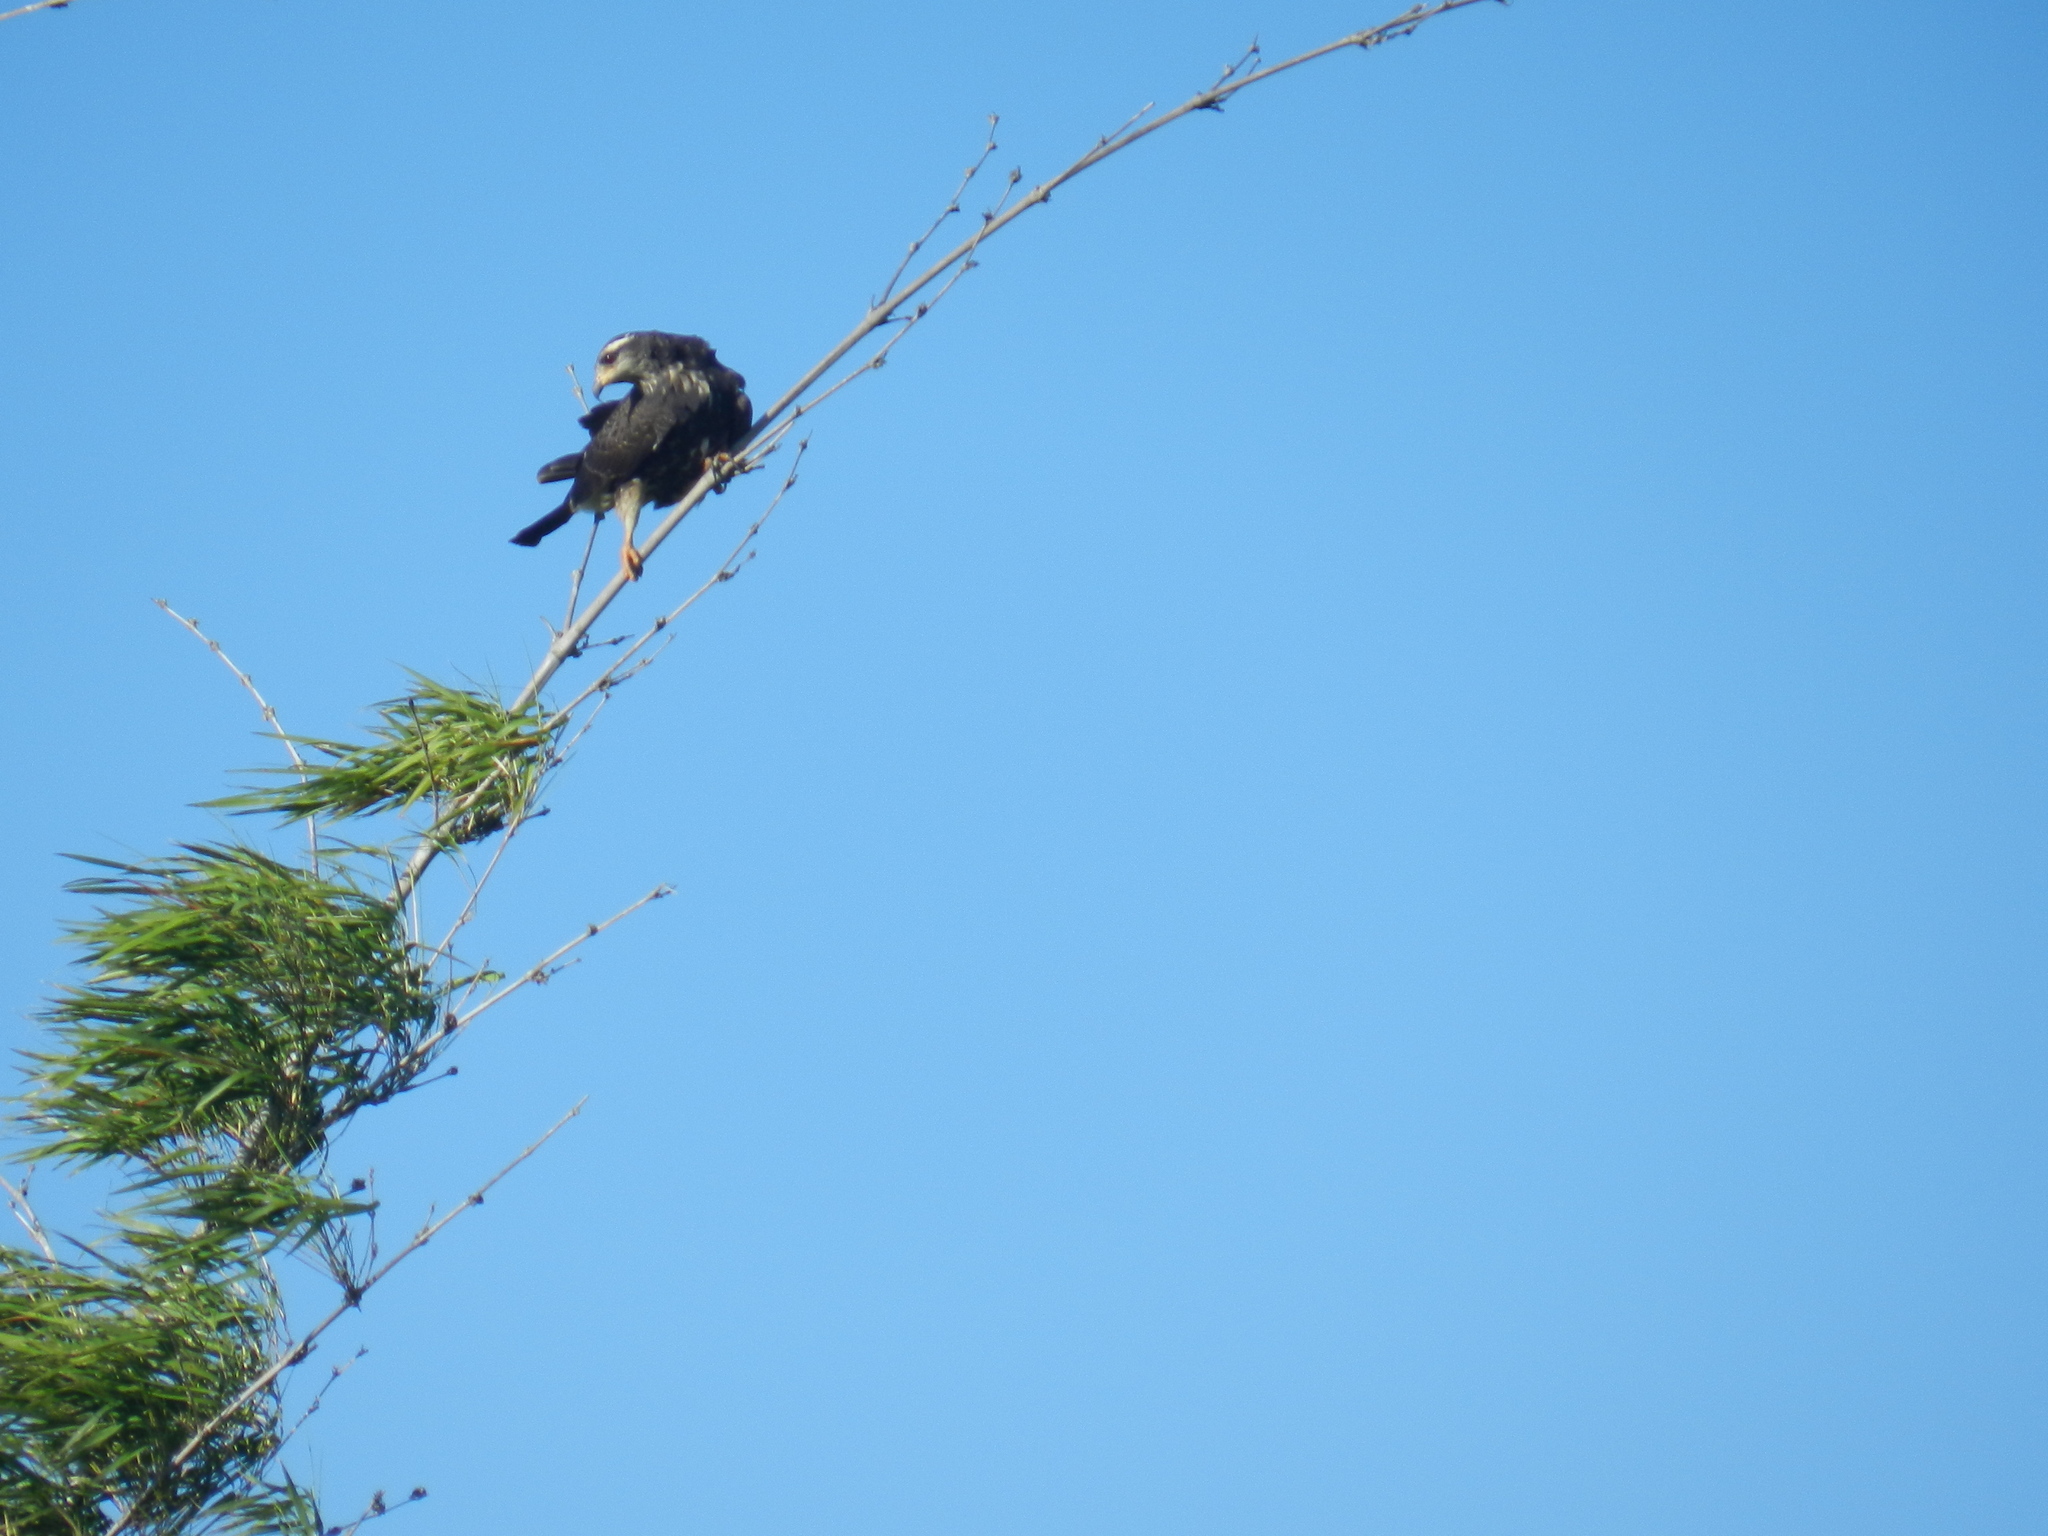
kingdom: Animalia
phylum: Chordata
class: Aves
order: Accipitriformes
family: Accipitridae
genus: Rostrhamus
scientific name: Rostrhamus sociabilis
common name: Snail kite
